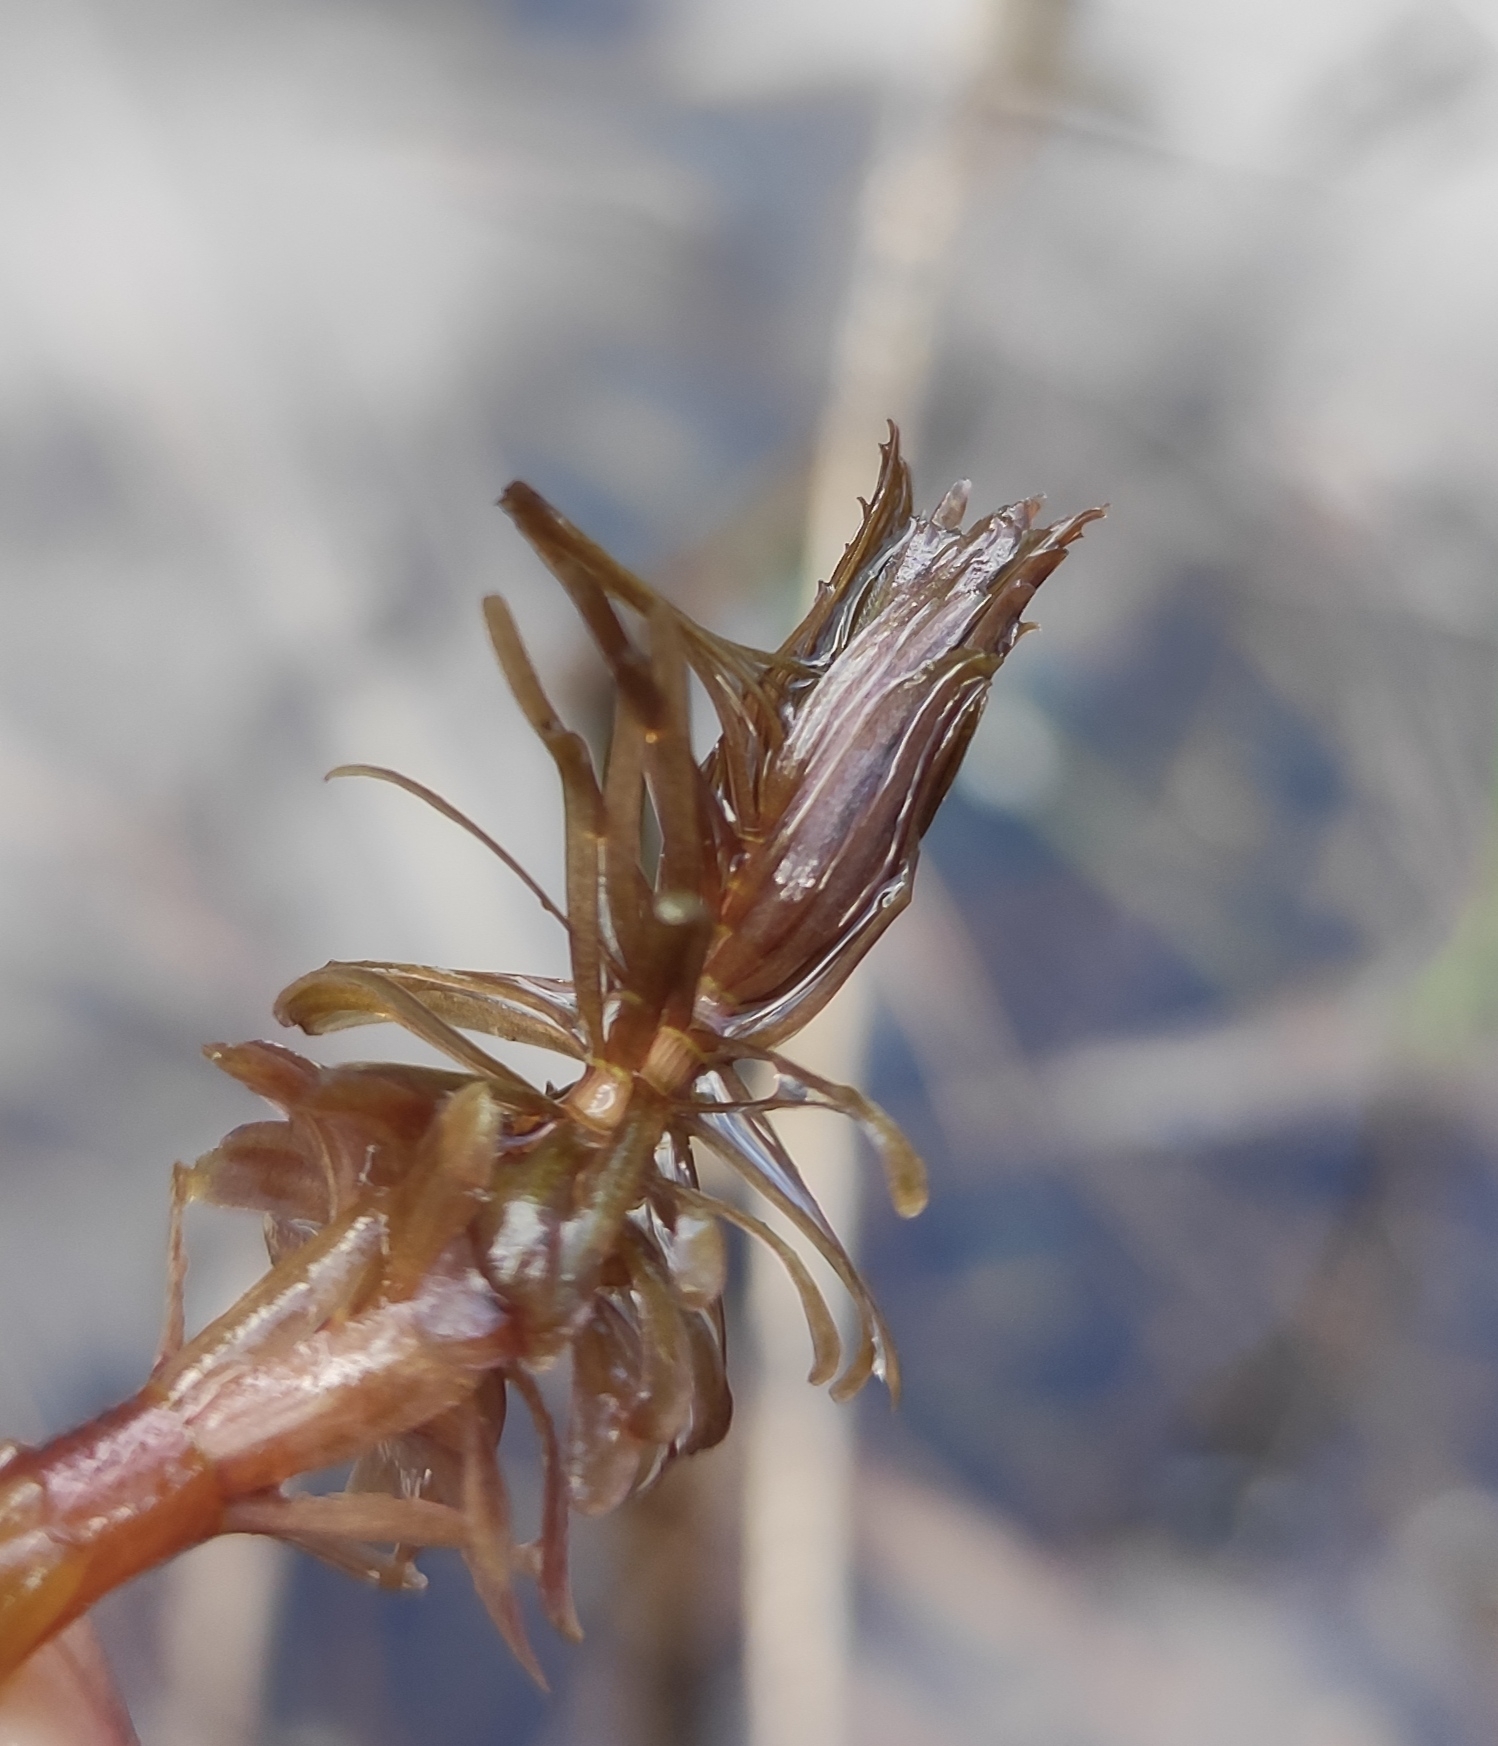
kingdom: Plantae
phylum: Tracheophyta
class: Magnoliopsida
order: Lamiales
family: Plantaginaceae
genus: Hippuris
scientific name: Hippuris vulgaris
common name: Mare's-tail
